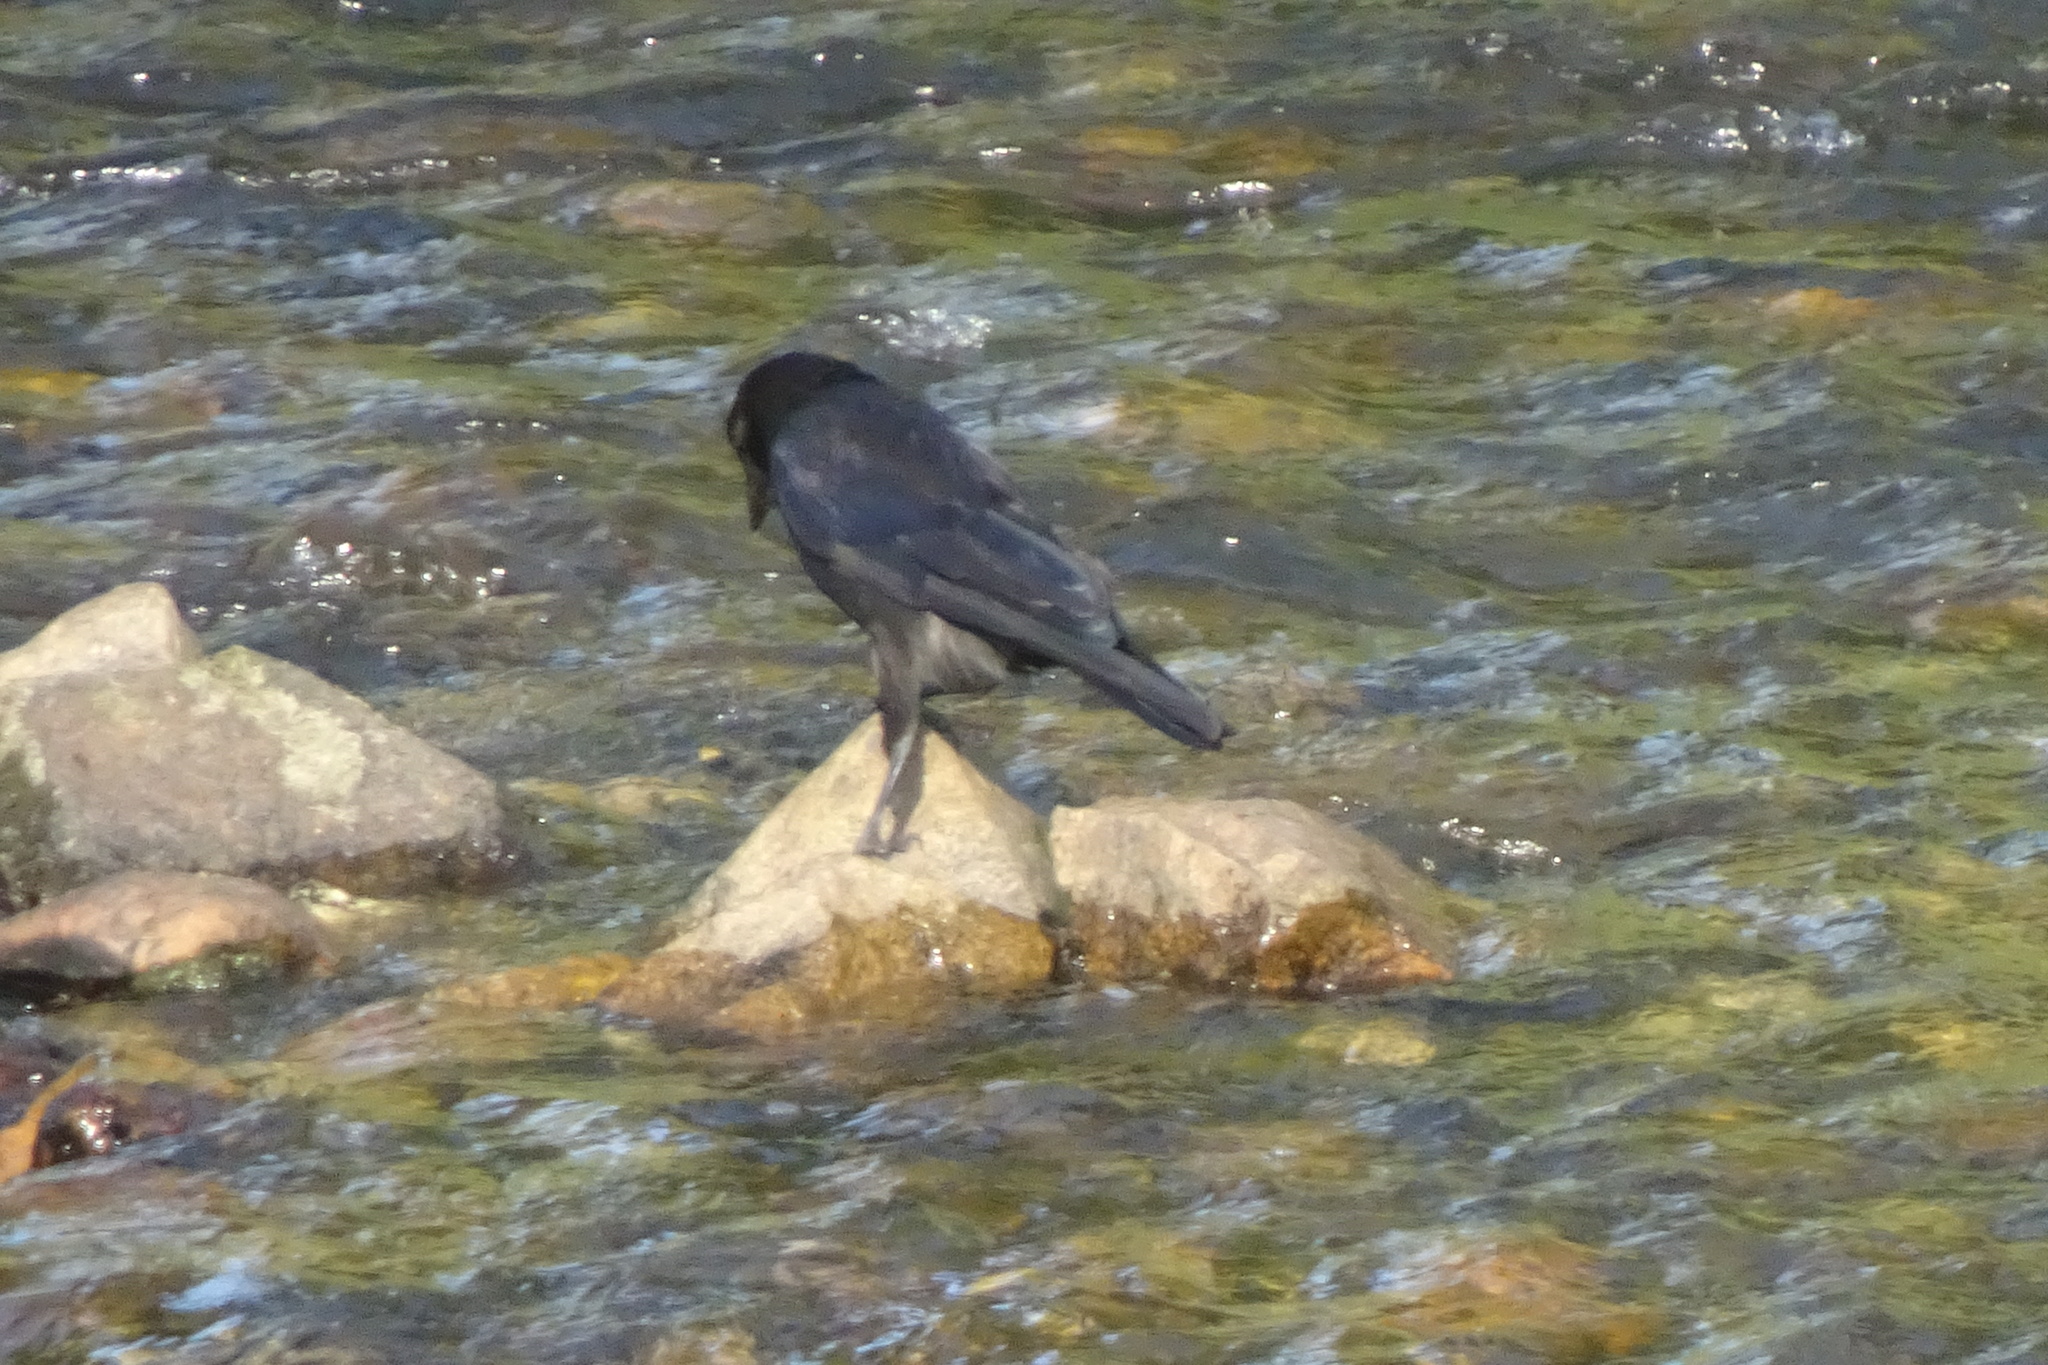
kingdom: Animalia
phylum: Chordata
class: Aves
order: Passeriformes
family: Corvidae
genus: Corvus
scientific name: Corvus corone
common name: Carrion crow
